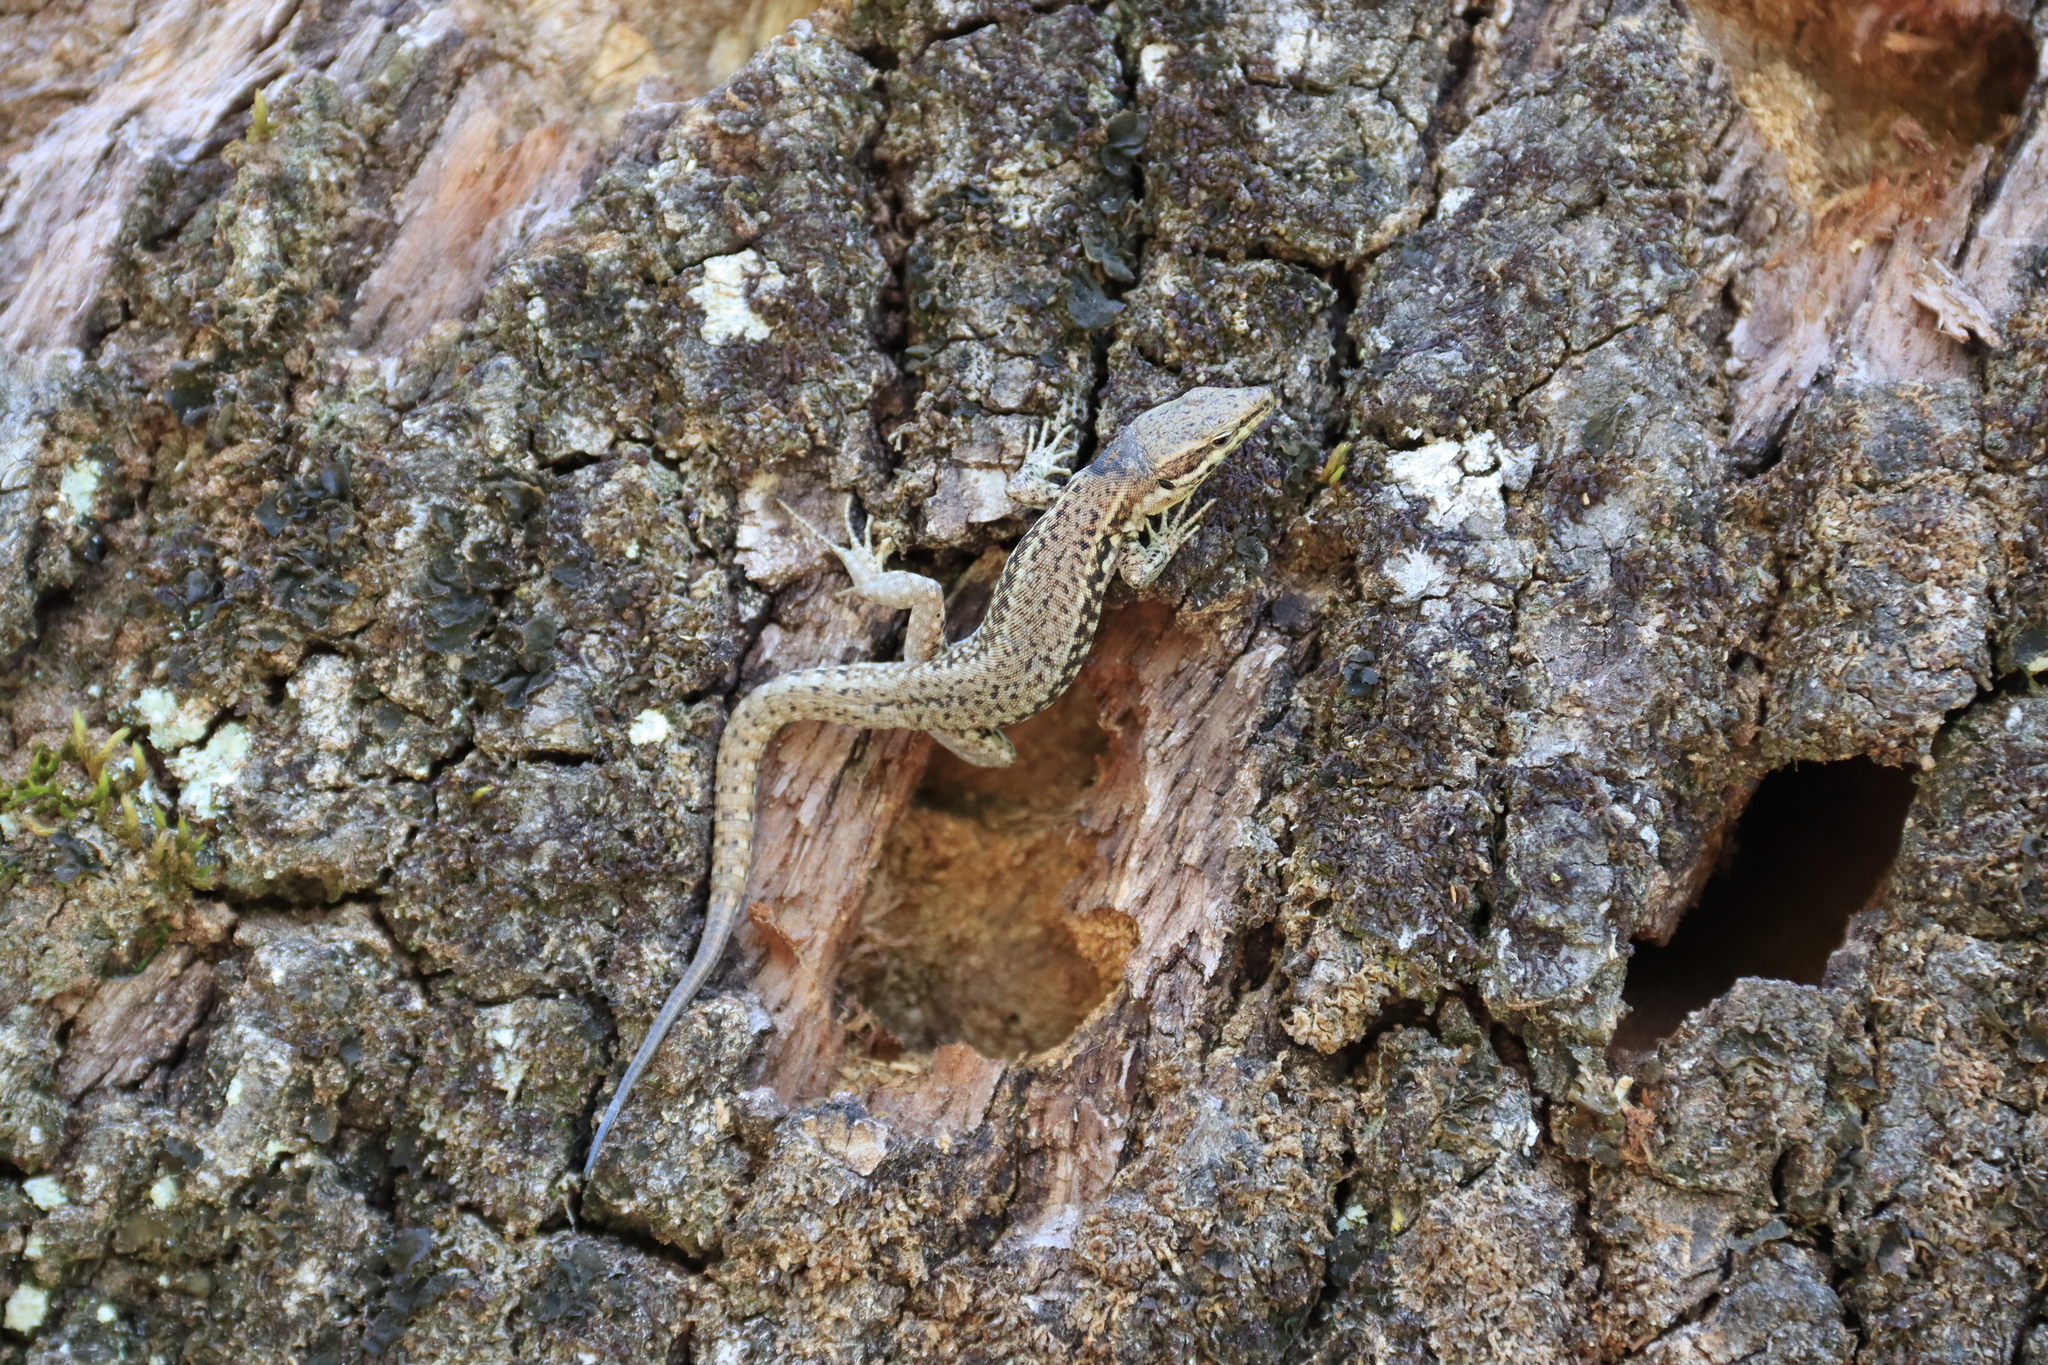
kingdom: Animalia
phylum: Chordata
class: Squamata
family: Lacertidae
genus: Podarcis
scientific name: Podarcis muralis
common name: Common wall lizard
